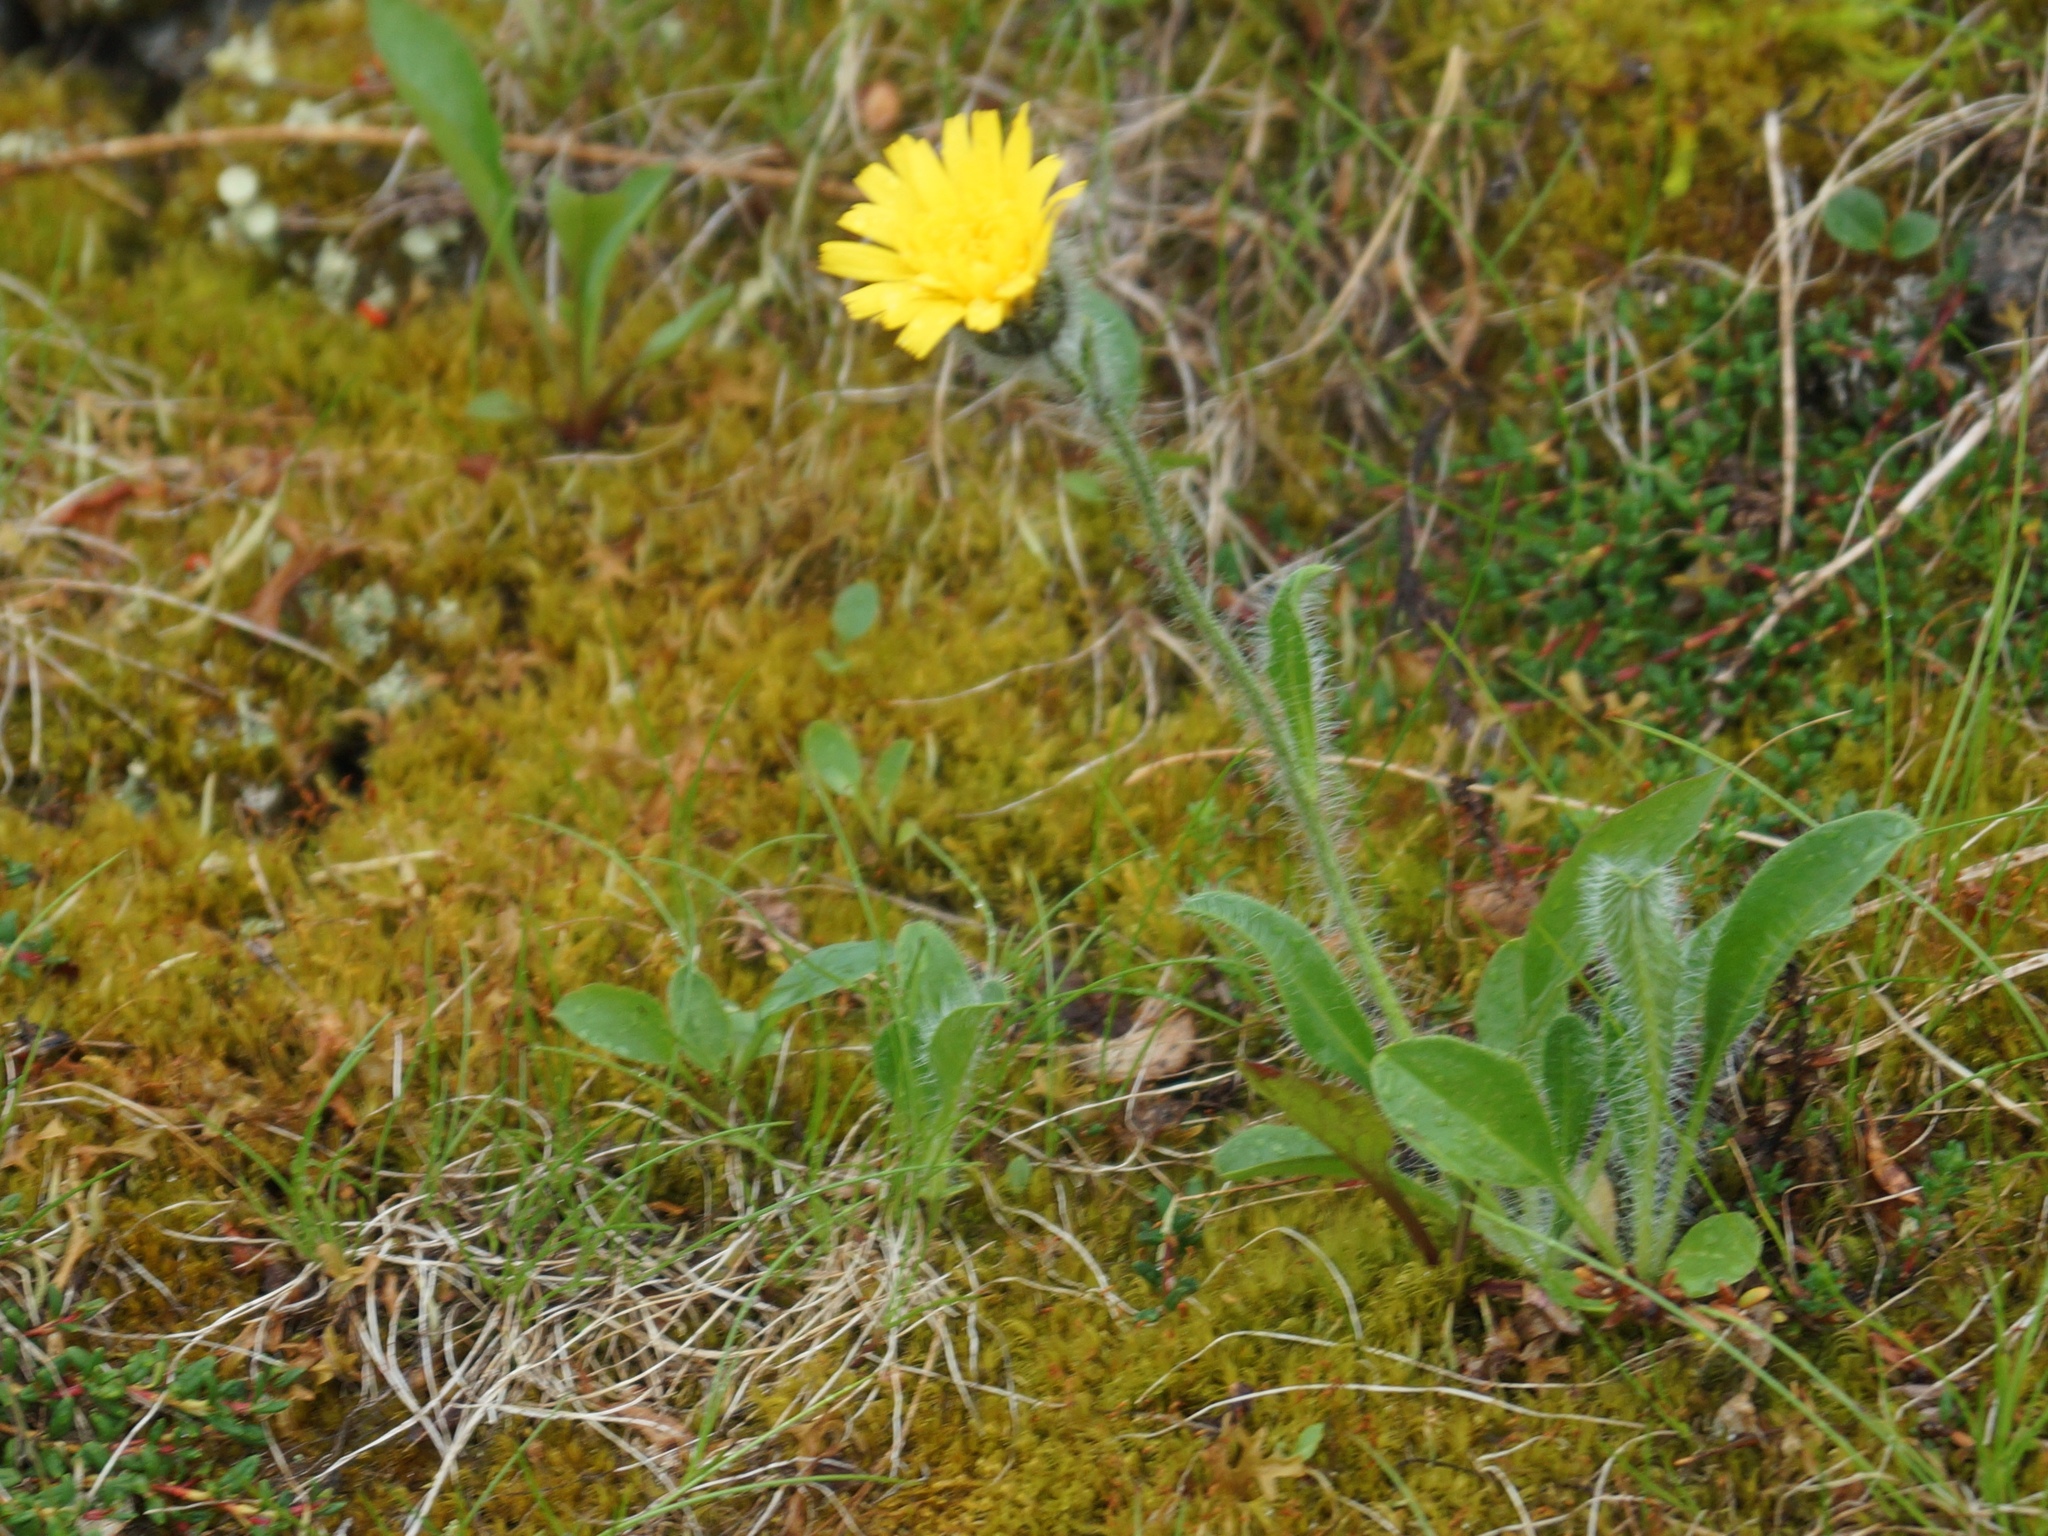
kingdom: Plantae
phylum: Tracheophyta
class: Magnoliopsida
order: Asterales
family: Asteraceae
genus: Hieracium
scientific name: Hieracium alpinum
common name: Alpine hawkweed
